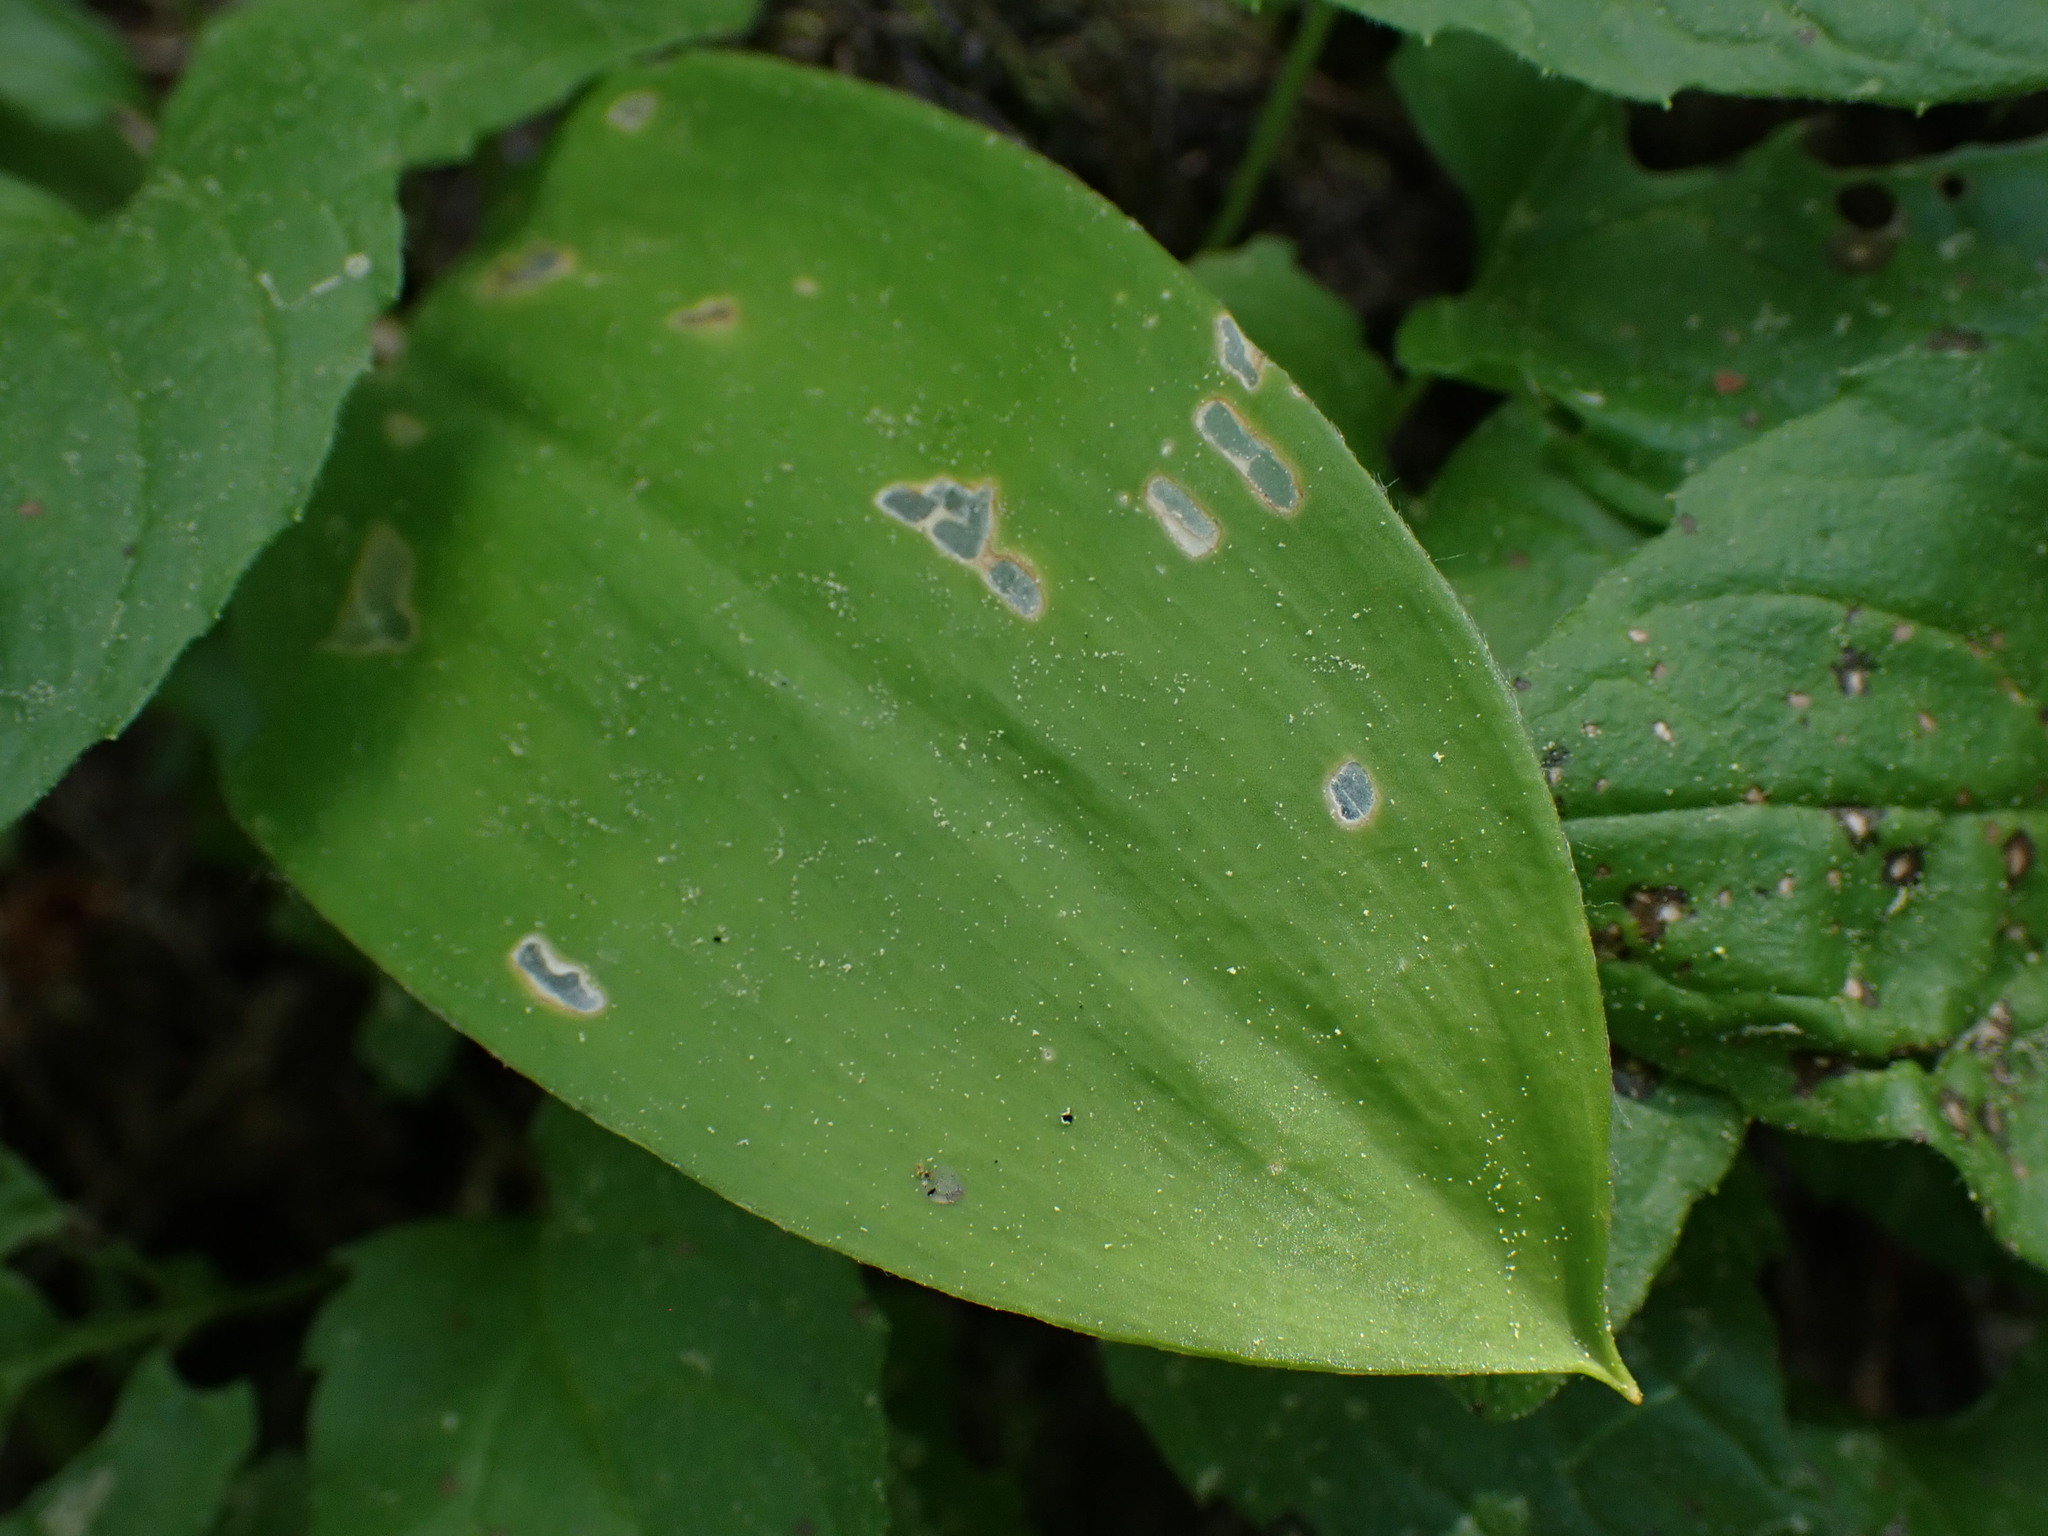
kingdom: Plantae
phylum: Tracheophyta
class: Liliopsida
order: Liliales
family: Liliaceae
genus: Clintonia
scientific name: Clintonia uniflora
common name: Queen's cup
